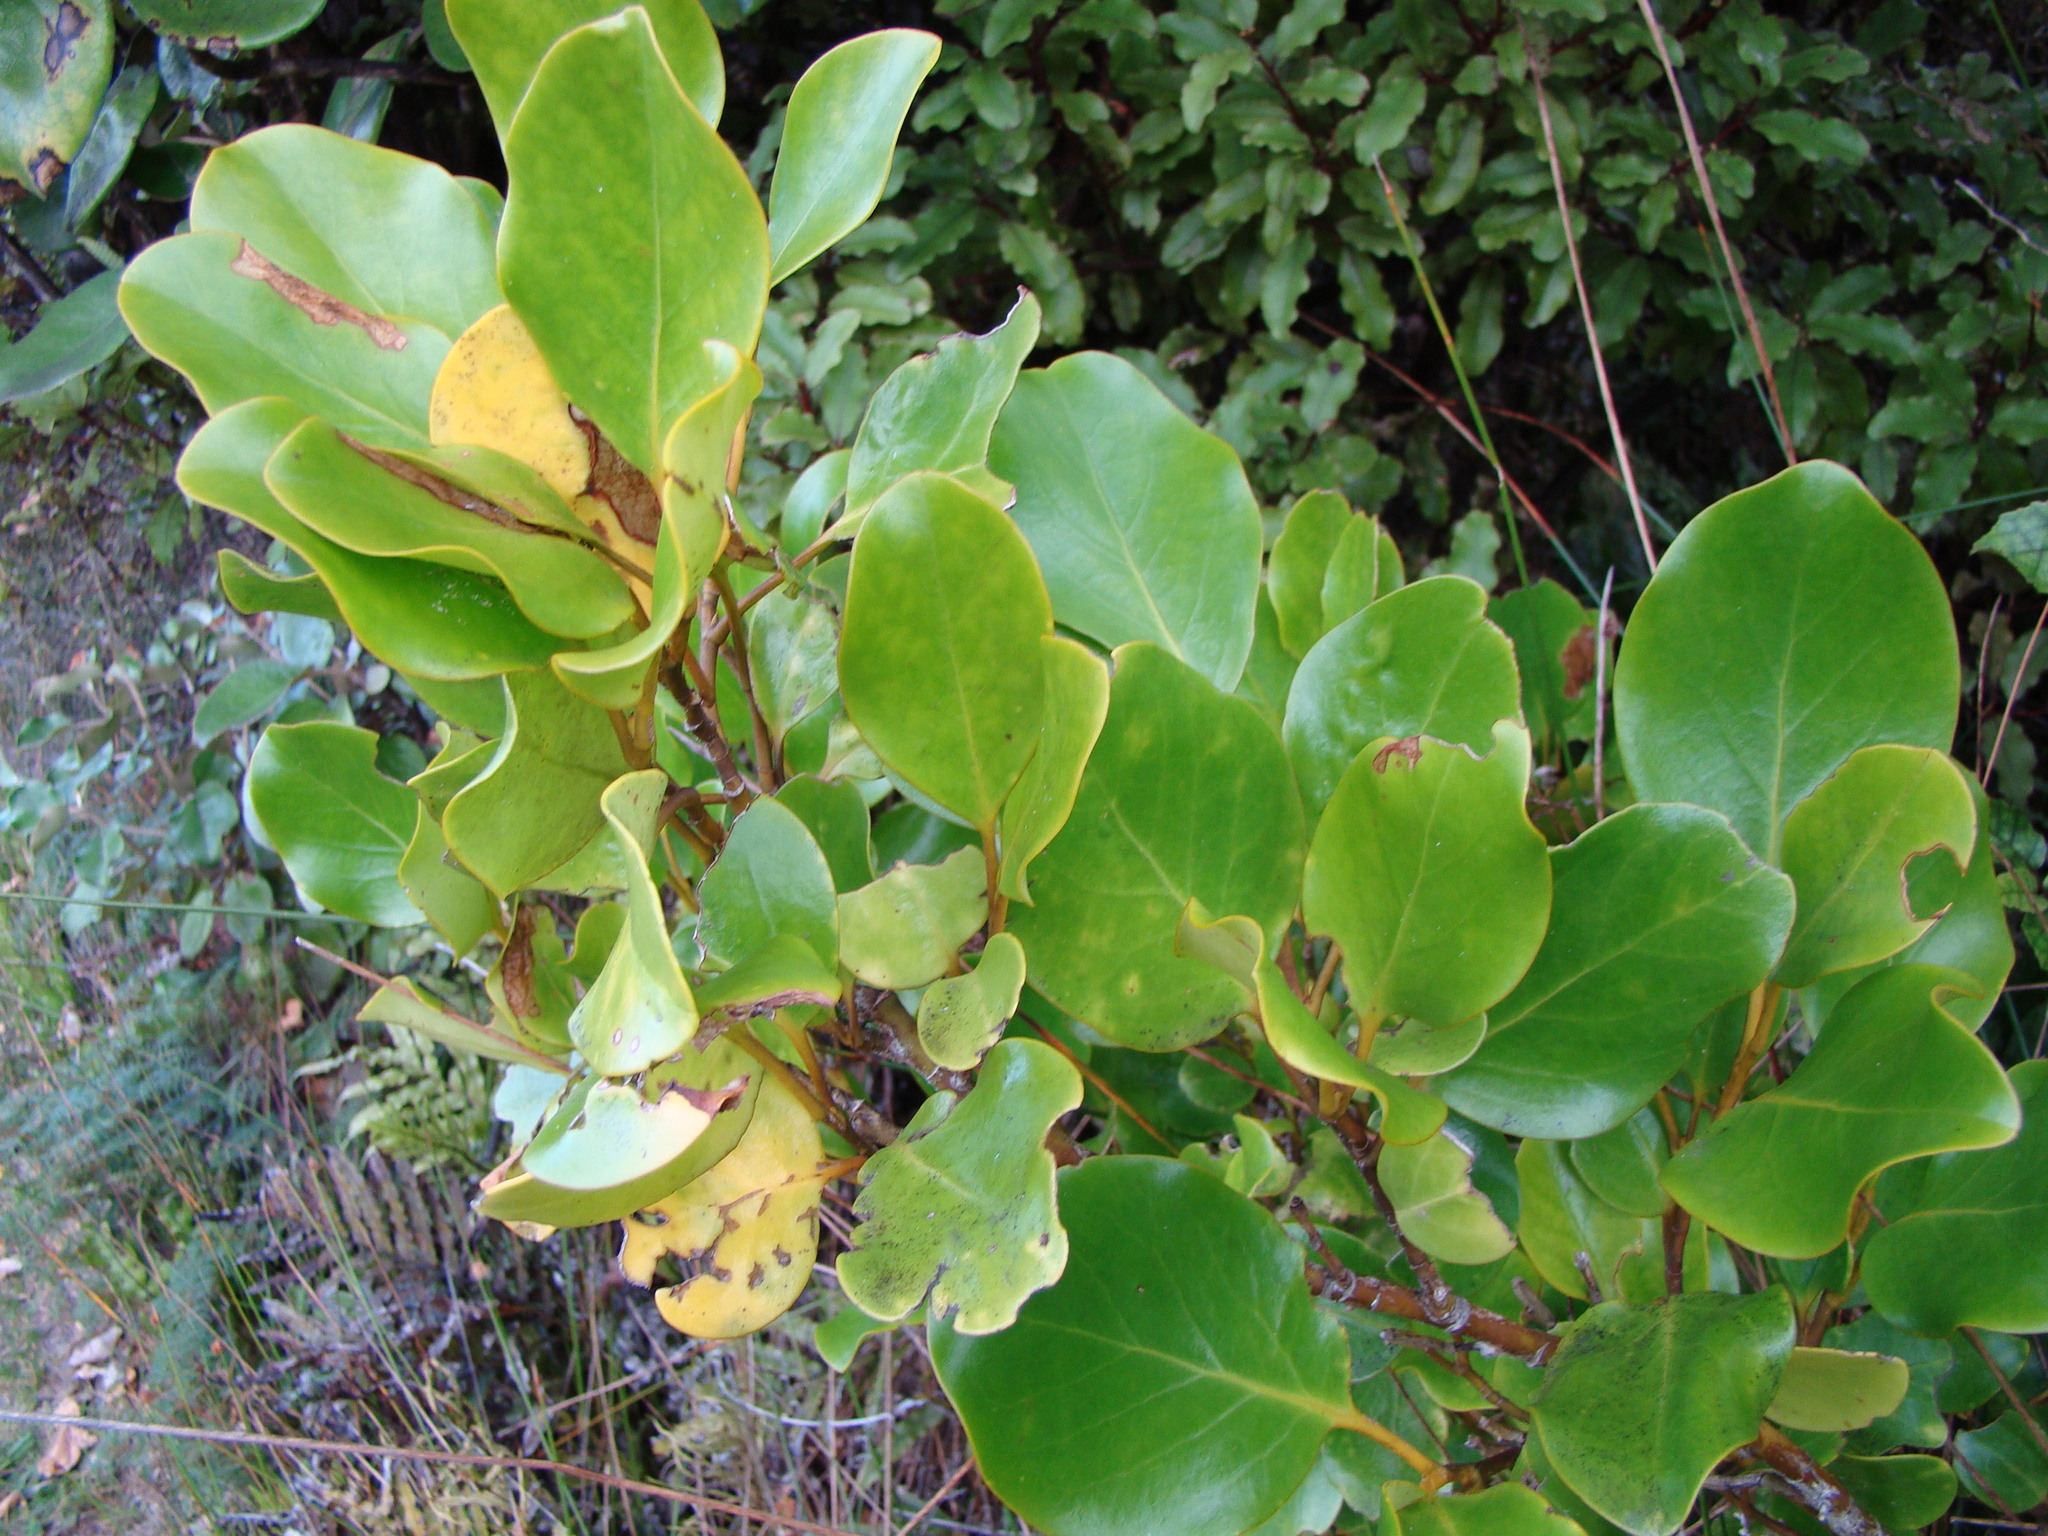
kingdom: Plantae
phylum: Tracheophyta
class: Magnoliopsida
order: Apiales
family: Griseliniaceae
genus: Griselinia
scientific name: Griselinia littoralis
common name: New zealand broadleaf
